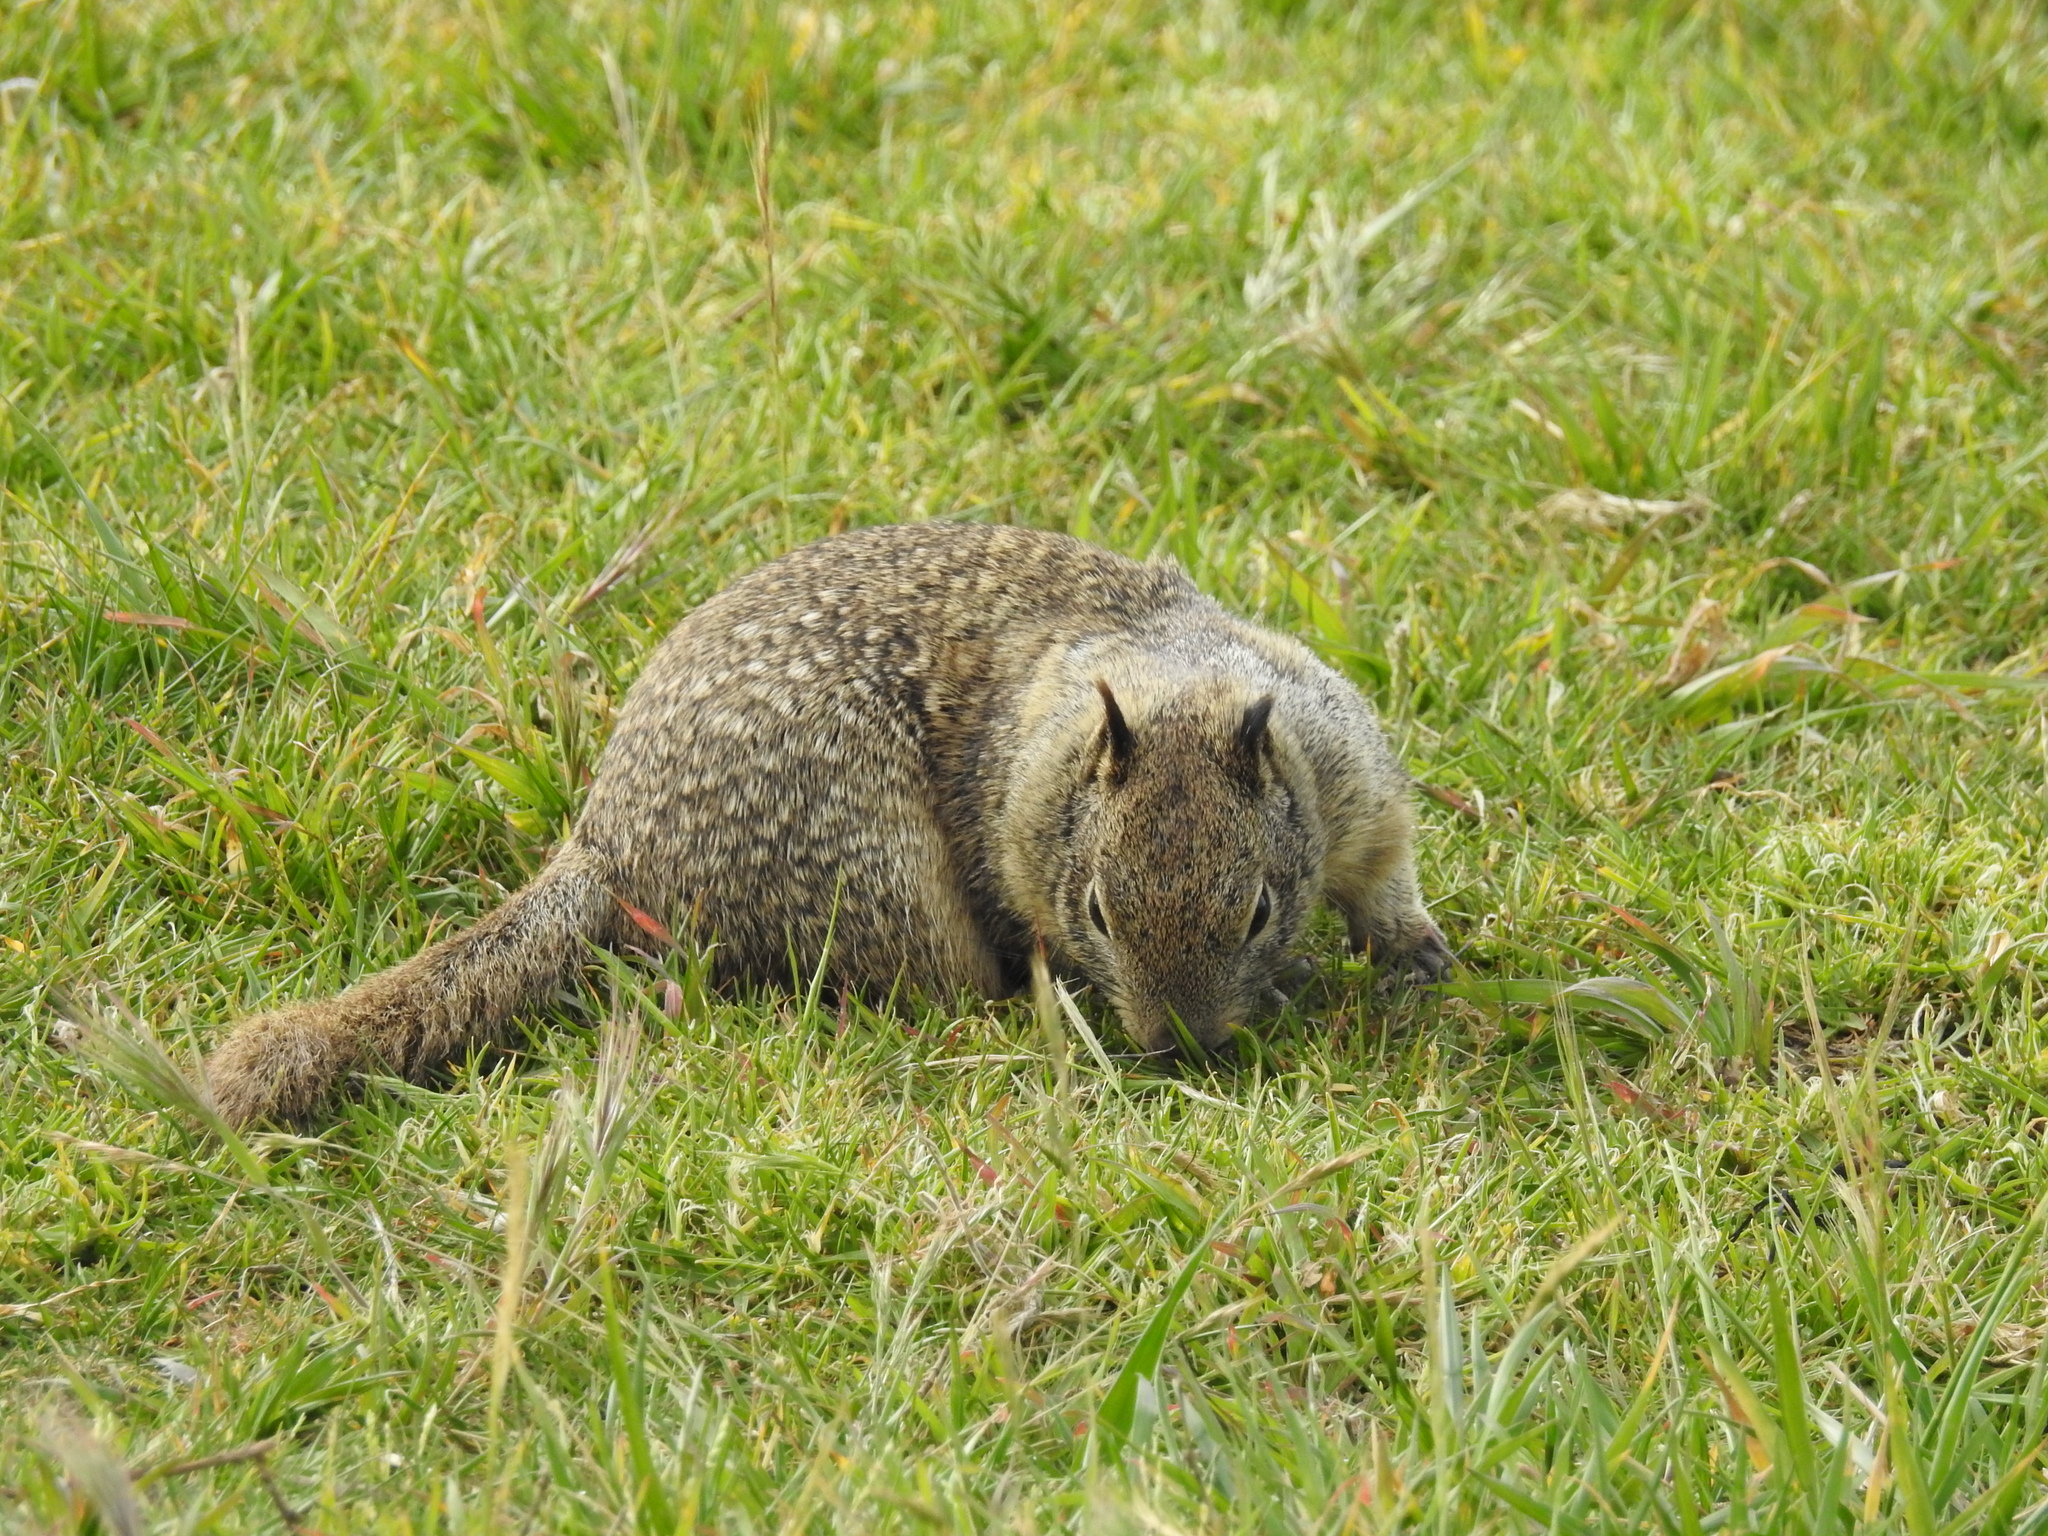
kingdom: Animalia
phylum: Chordata
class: Mammalia
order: Rodentia
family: Sciuridae
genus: Otospermophilus
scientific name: Otospermophilus beecheyi
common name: California ground squirrel
